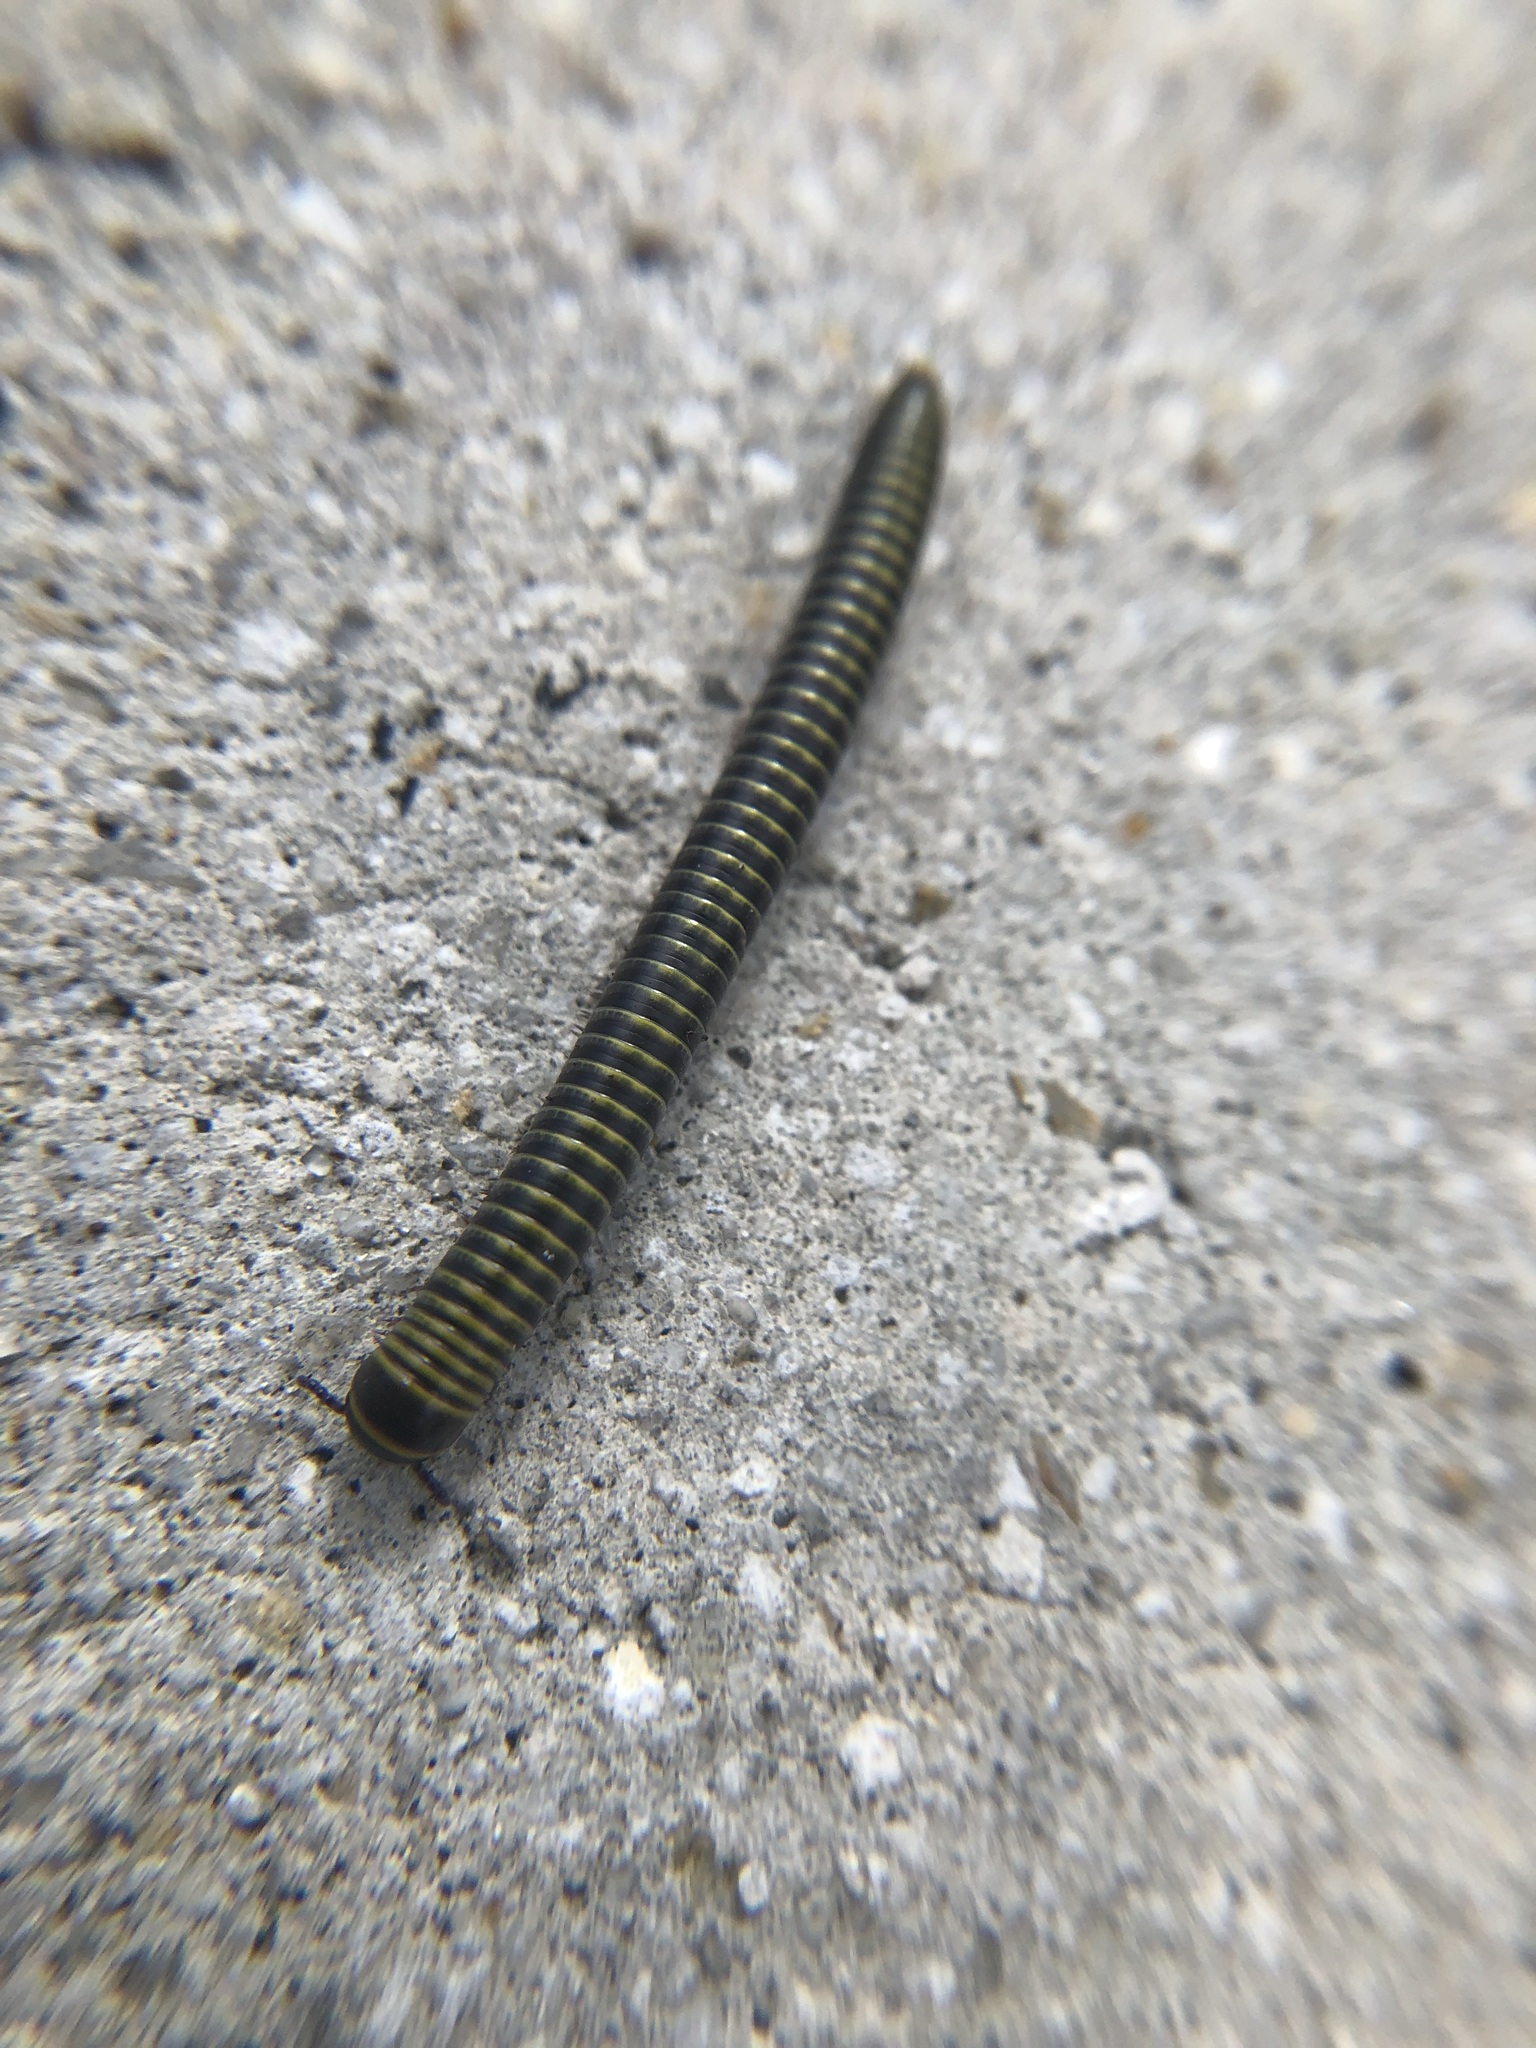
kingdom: Animalia
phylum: Arthropoda
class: Diplopoda
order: Spirobolida
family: Rhinocricidae
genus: Anadenobolus
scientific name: Anadenobolus monilicornis
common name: Caribbean millipede
